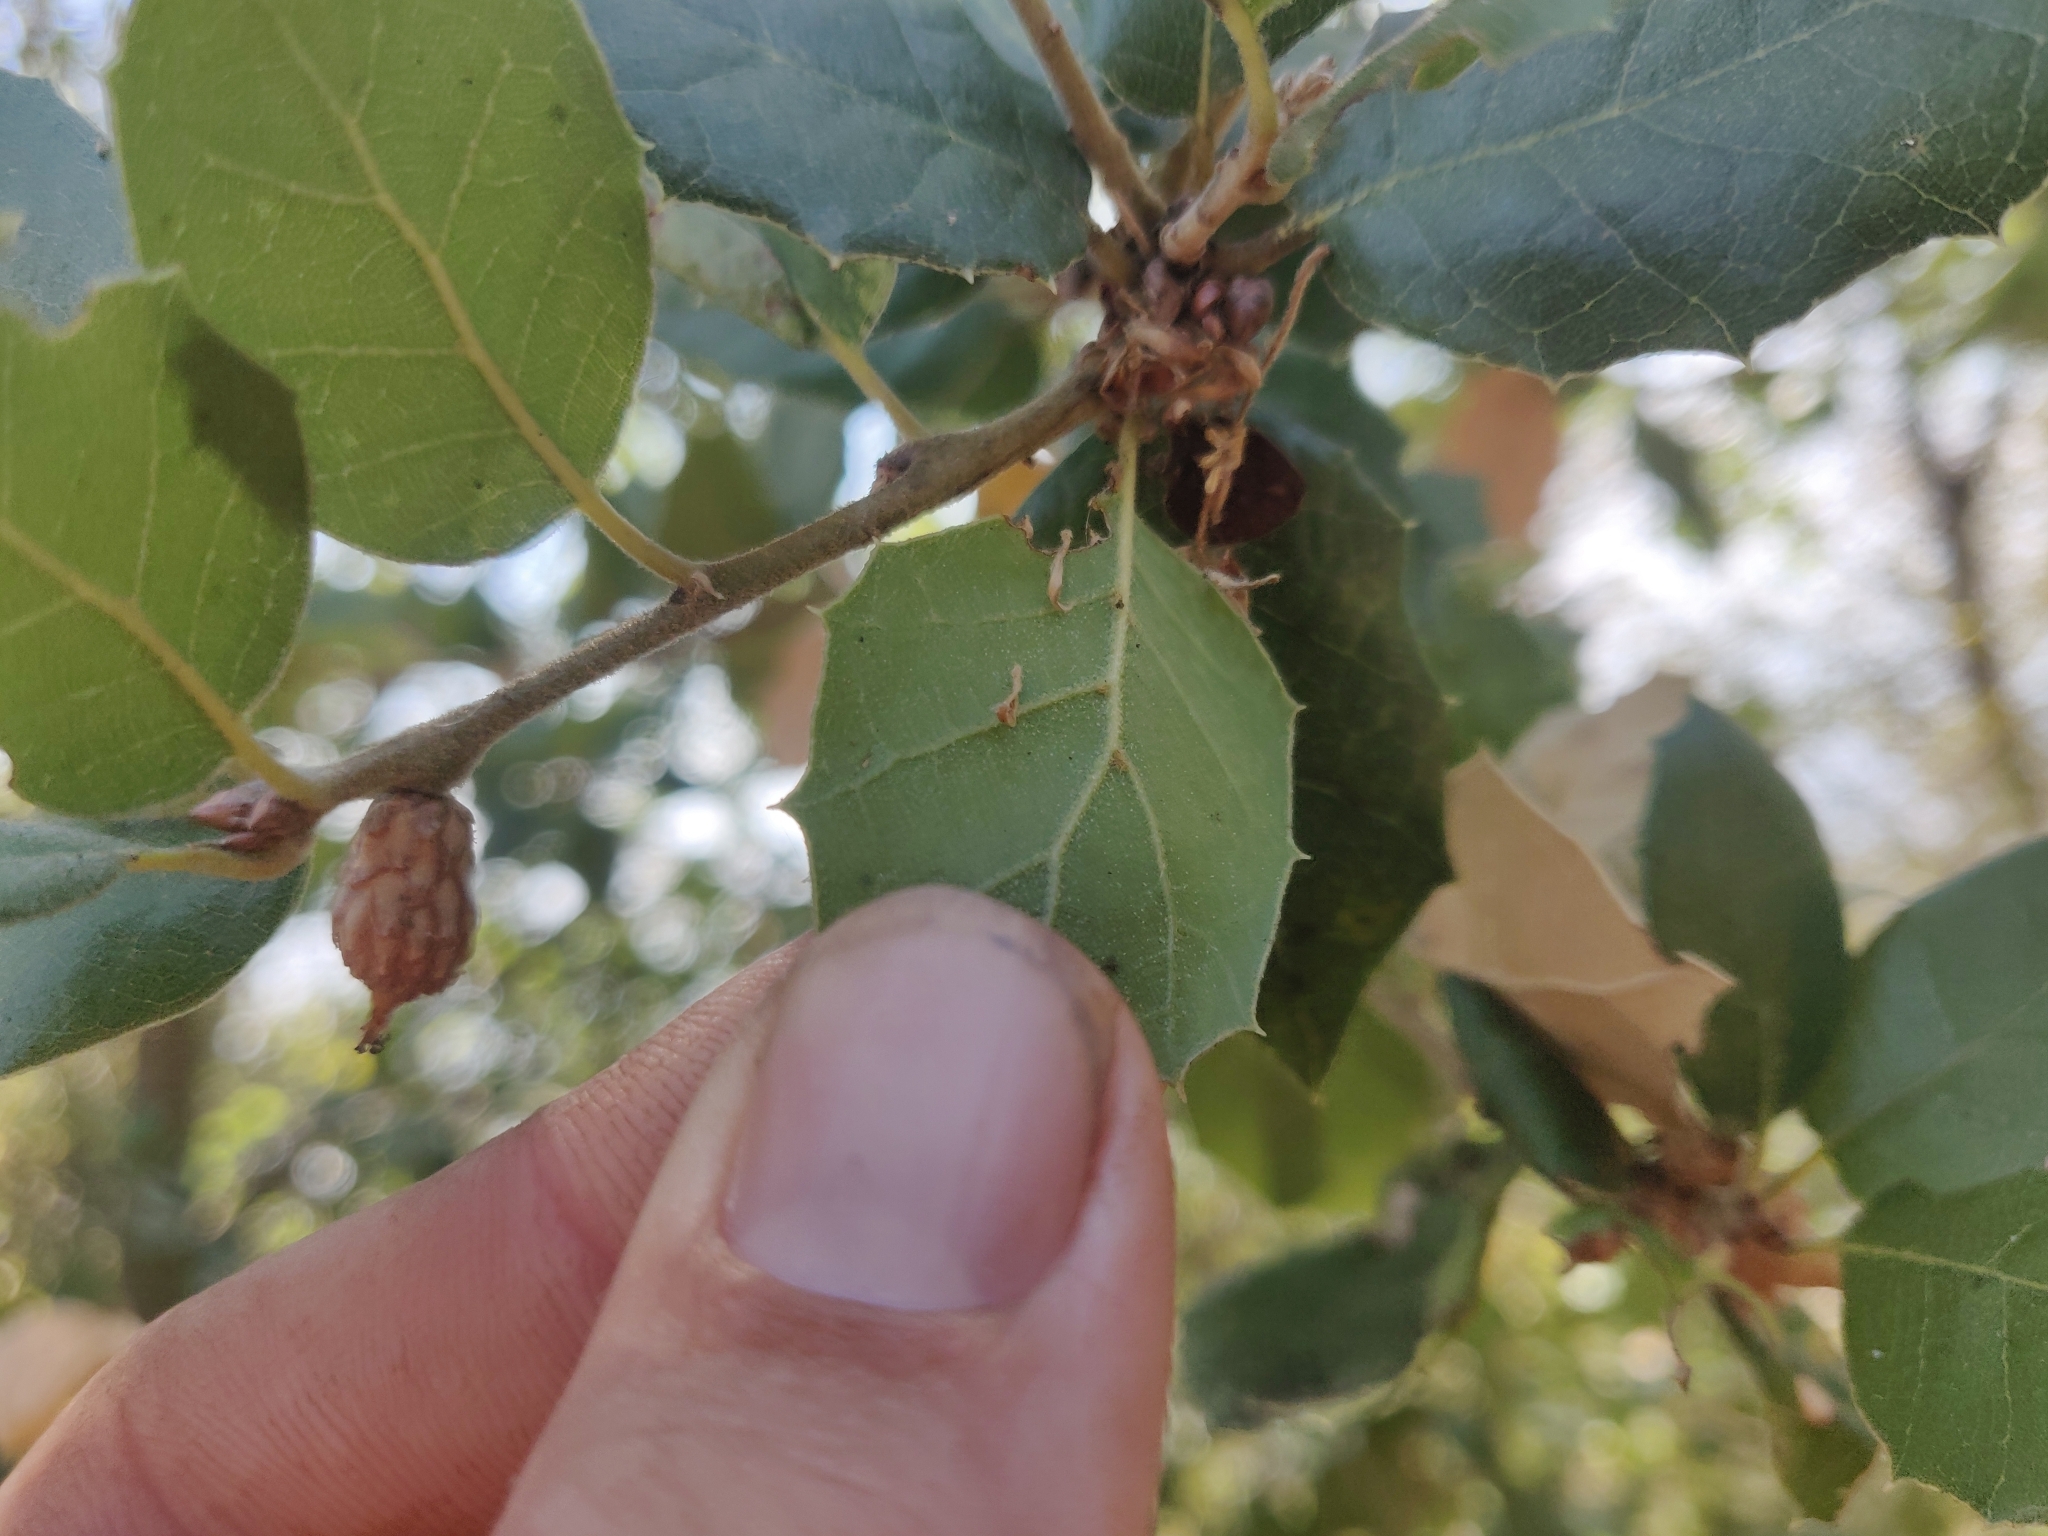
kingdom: Plantae
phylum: Tracheophyta
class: Magnoliopsida
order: Fagales
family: Fagaceae
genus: Quercus
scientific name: Quercus agrifolia
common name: California live oak
